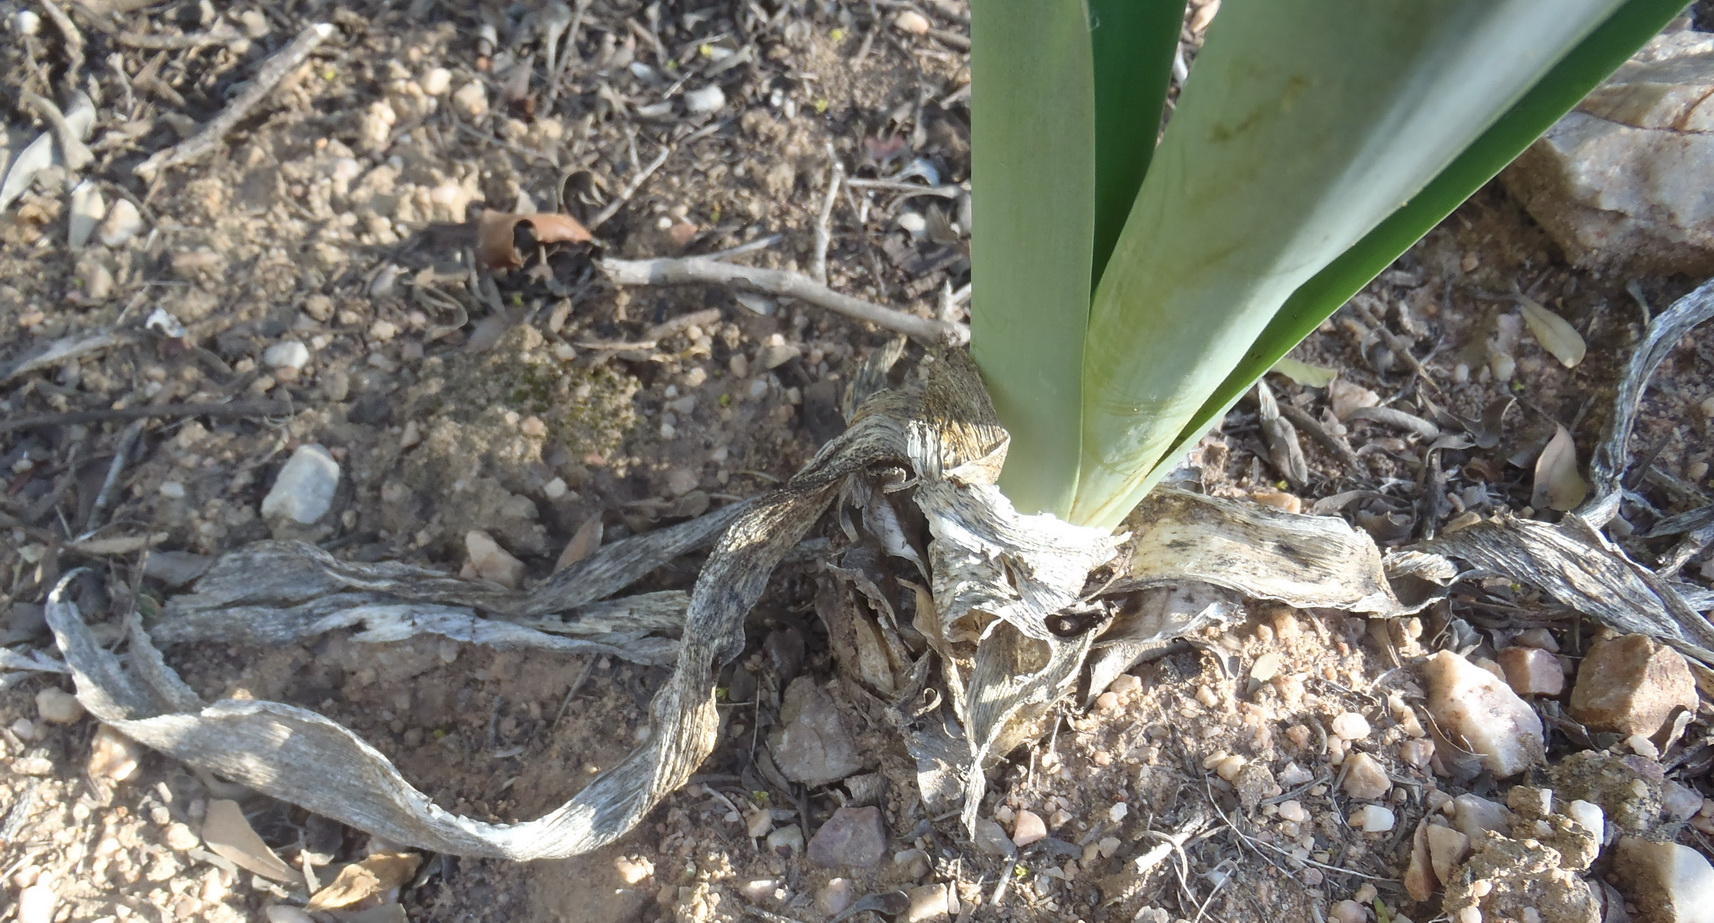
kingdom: Plantae
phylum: Tracheophyta
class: Liliopsida
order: Asparagales
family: Asparagaceae
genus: Drimia
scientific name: Drimia capensis
